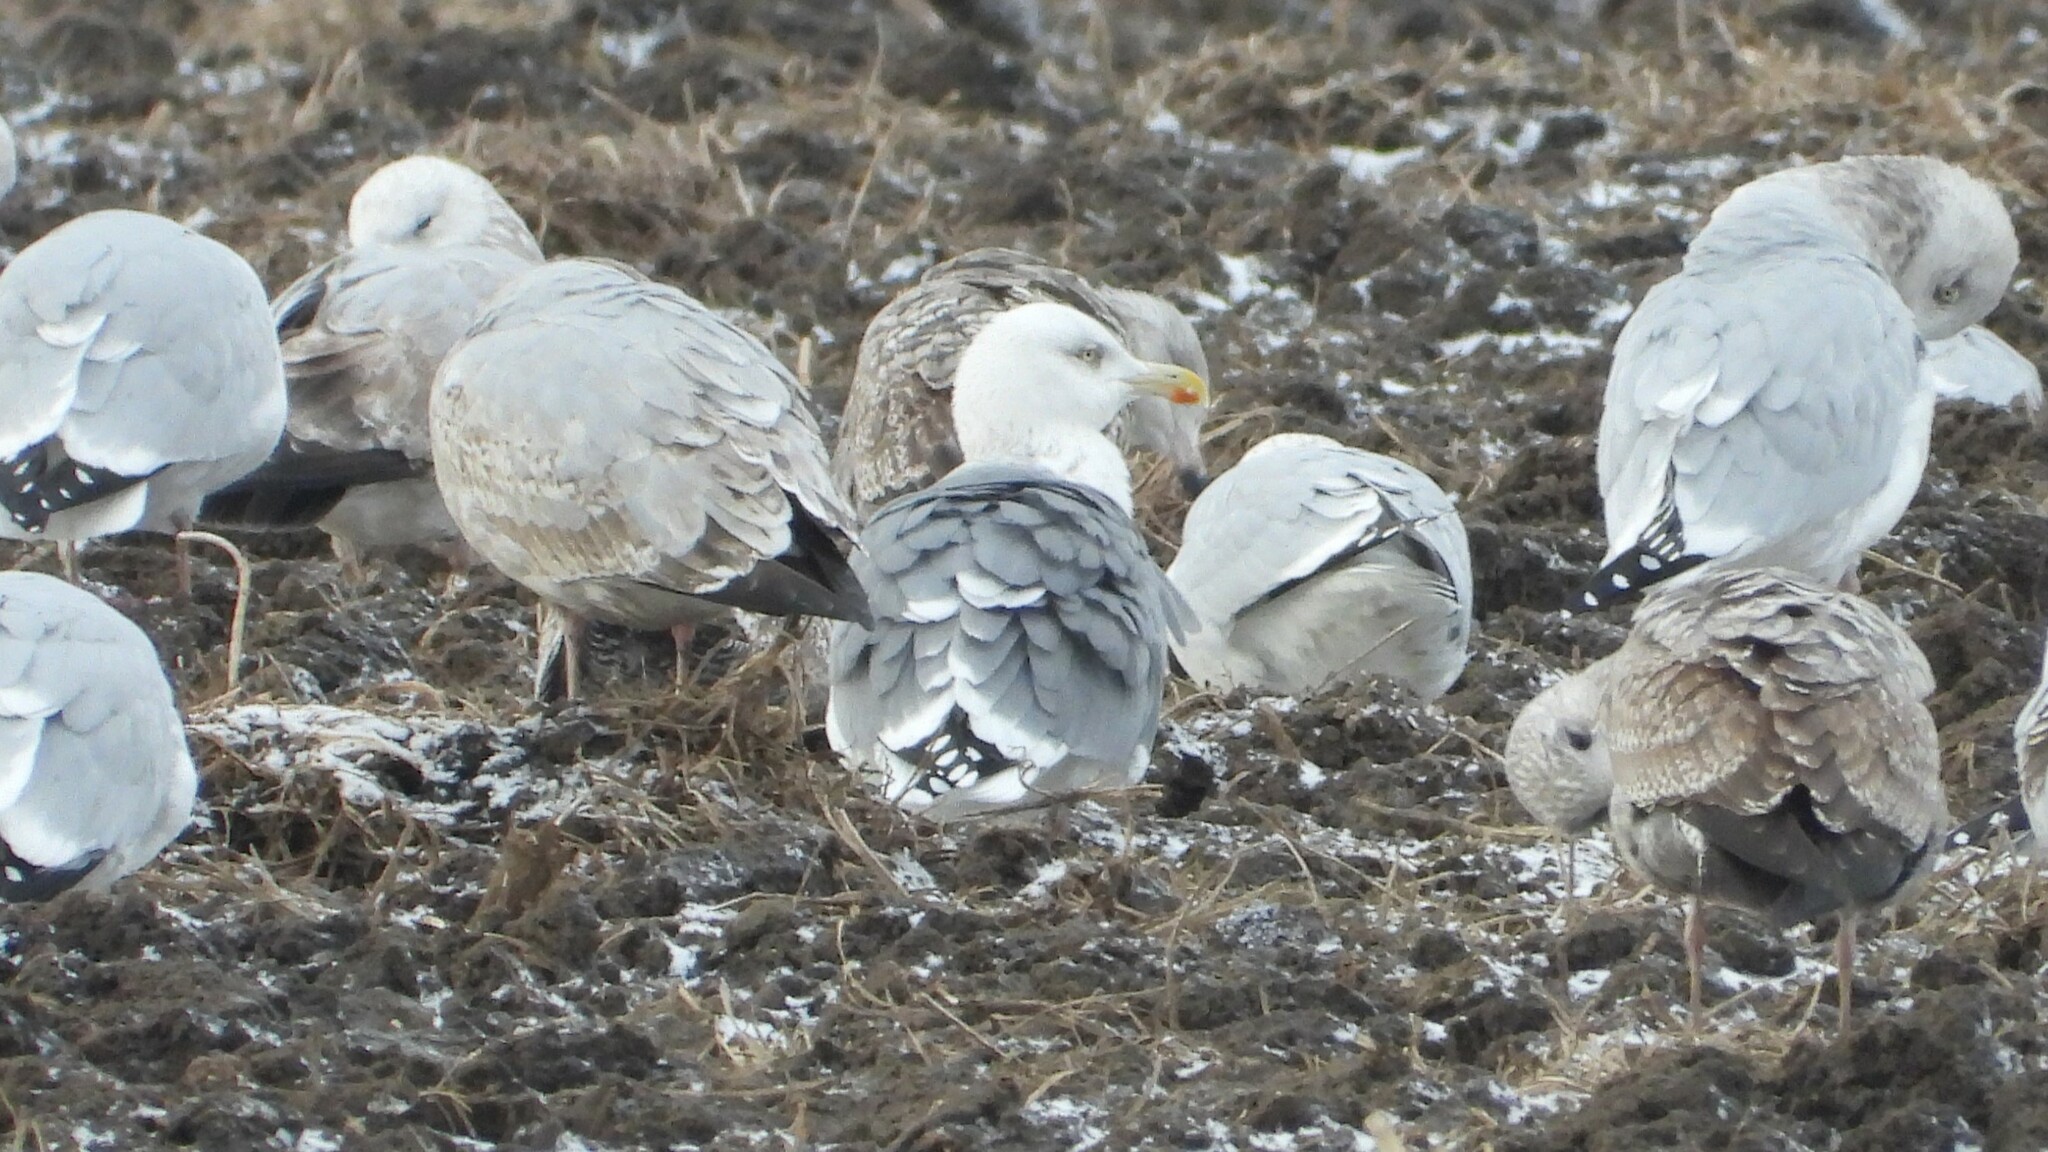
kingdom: Animalia
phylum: Chordata
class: Aves
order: Charadriiformes
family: Laridae
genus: Larus
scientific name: Larus
